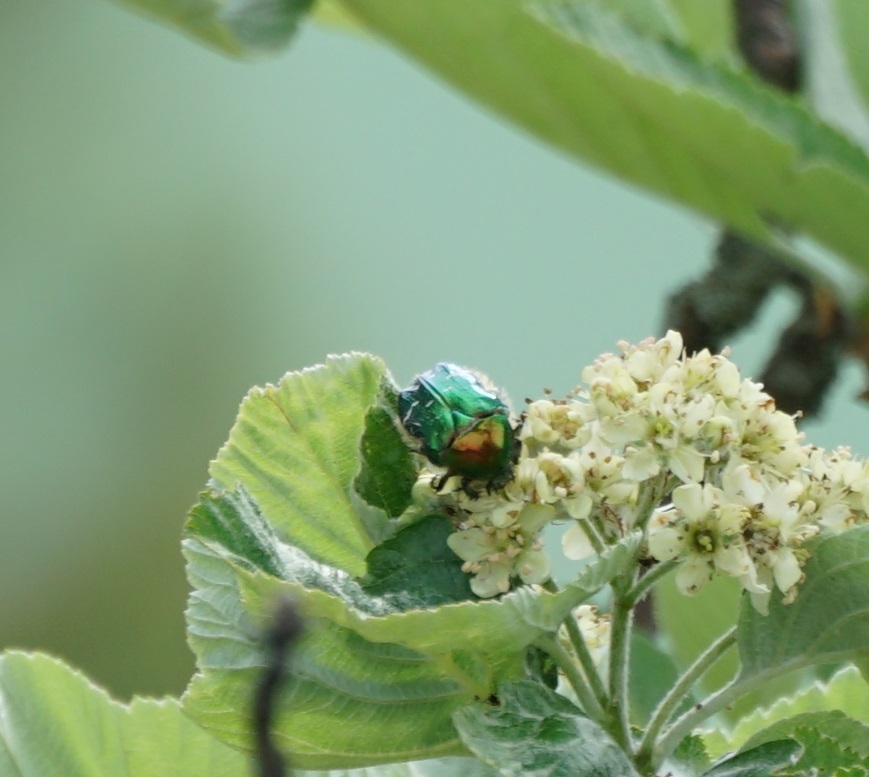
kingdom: Animalia
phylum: Arthropoda
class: Insecta
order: Coleoptera
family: Scarabaeidae
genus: Cetonia
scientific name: Cetonia aurata
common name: Rose chafer
